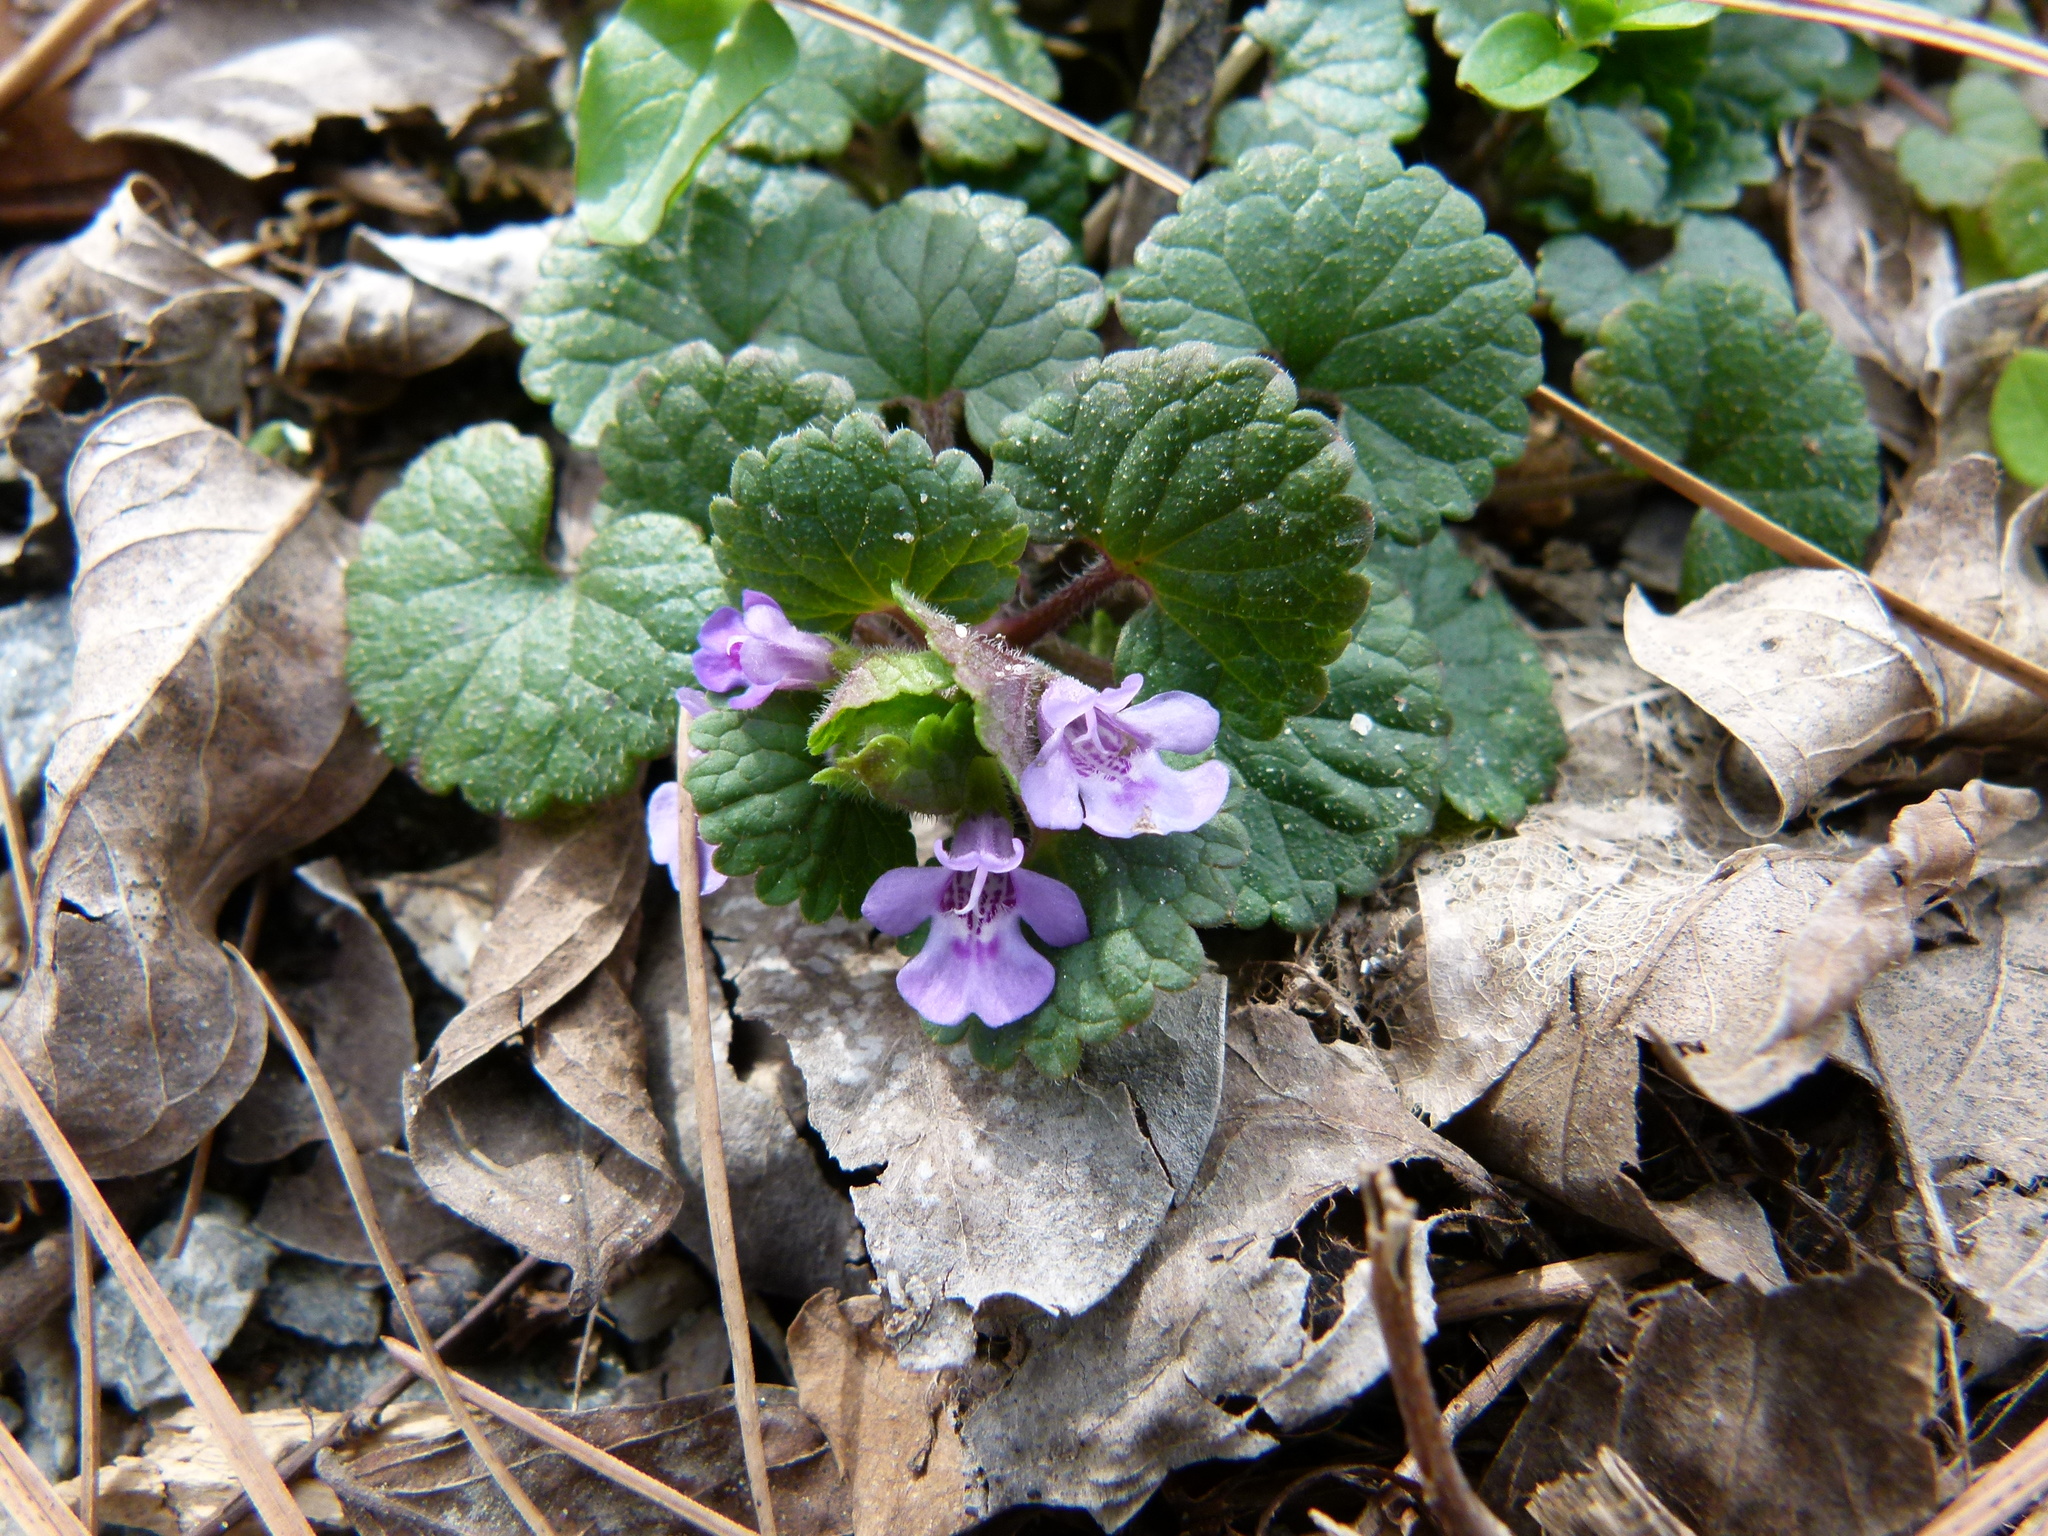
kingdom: Plantae
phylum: Tracheophyta
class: Magnoliopsida
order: Lamiales
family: Lamiaceae
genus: Glechoma
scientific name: Glechoma hederacea
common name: Ground ivy
